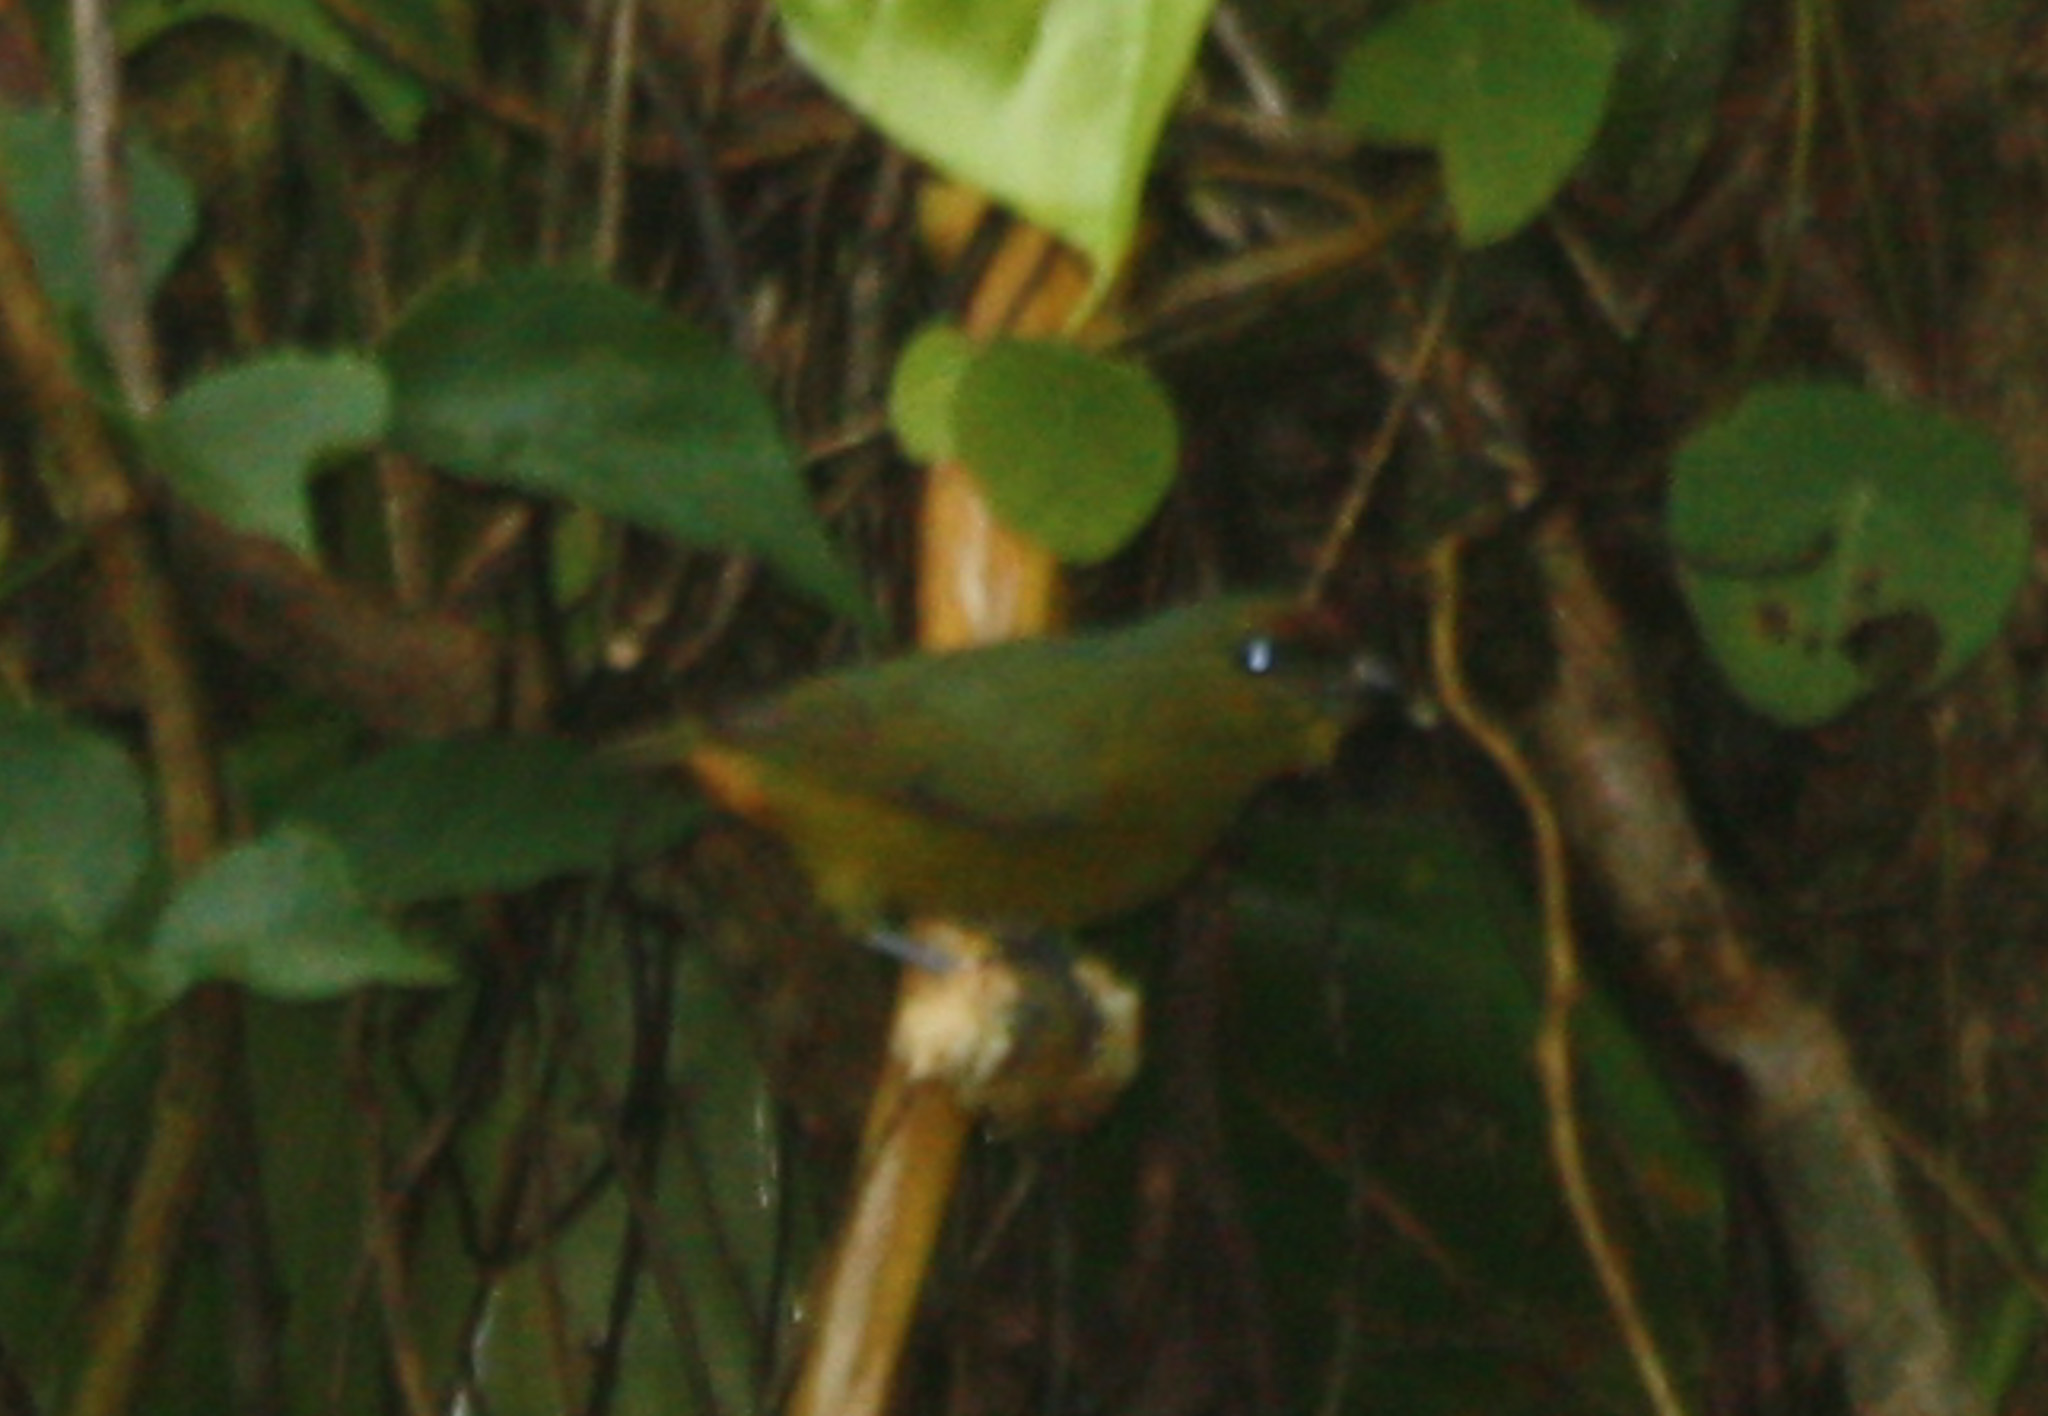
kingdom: Animalia
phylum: Chordata
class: Aves
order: Passeriformes
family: Fringillidae
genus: Euphonia
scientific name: Euphonia gouldi
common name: Olive-backed euphonia
